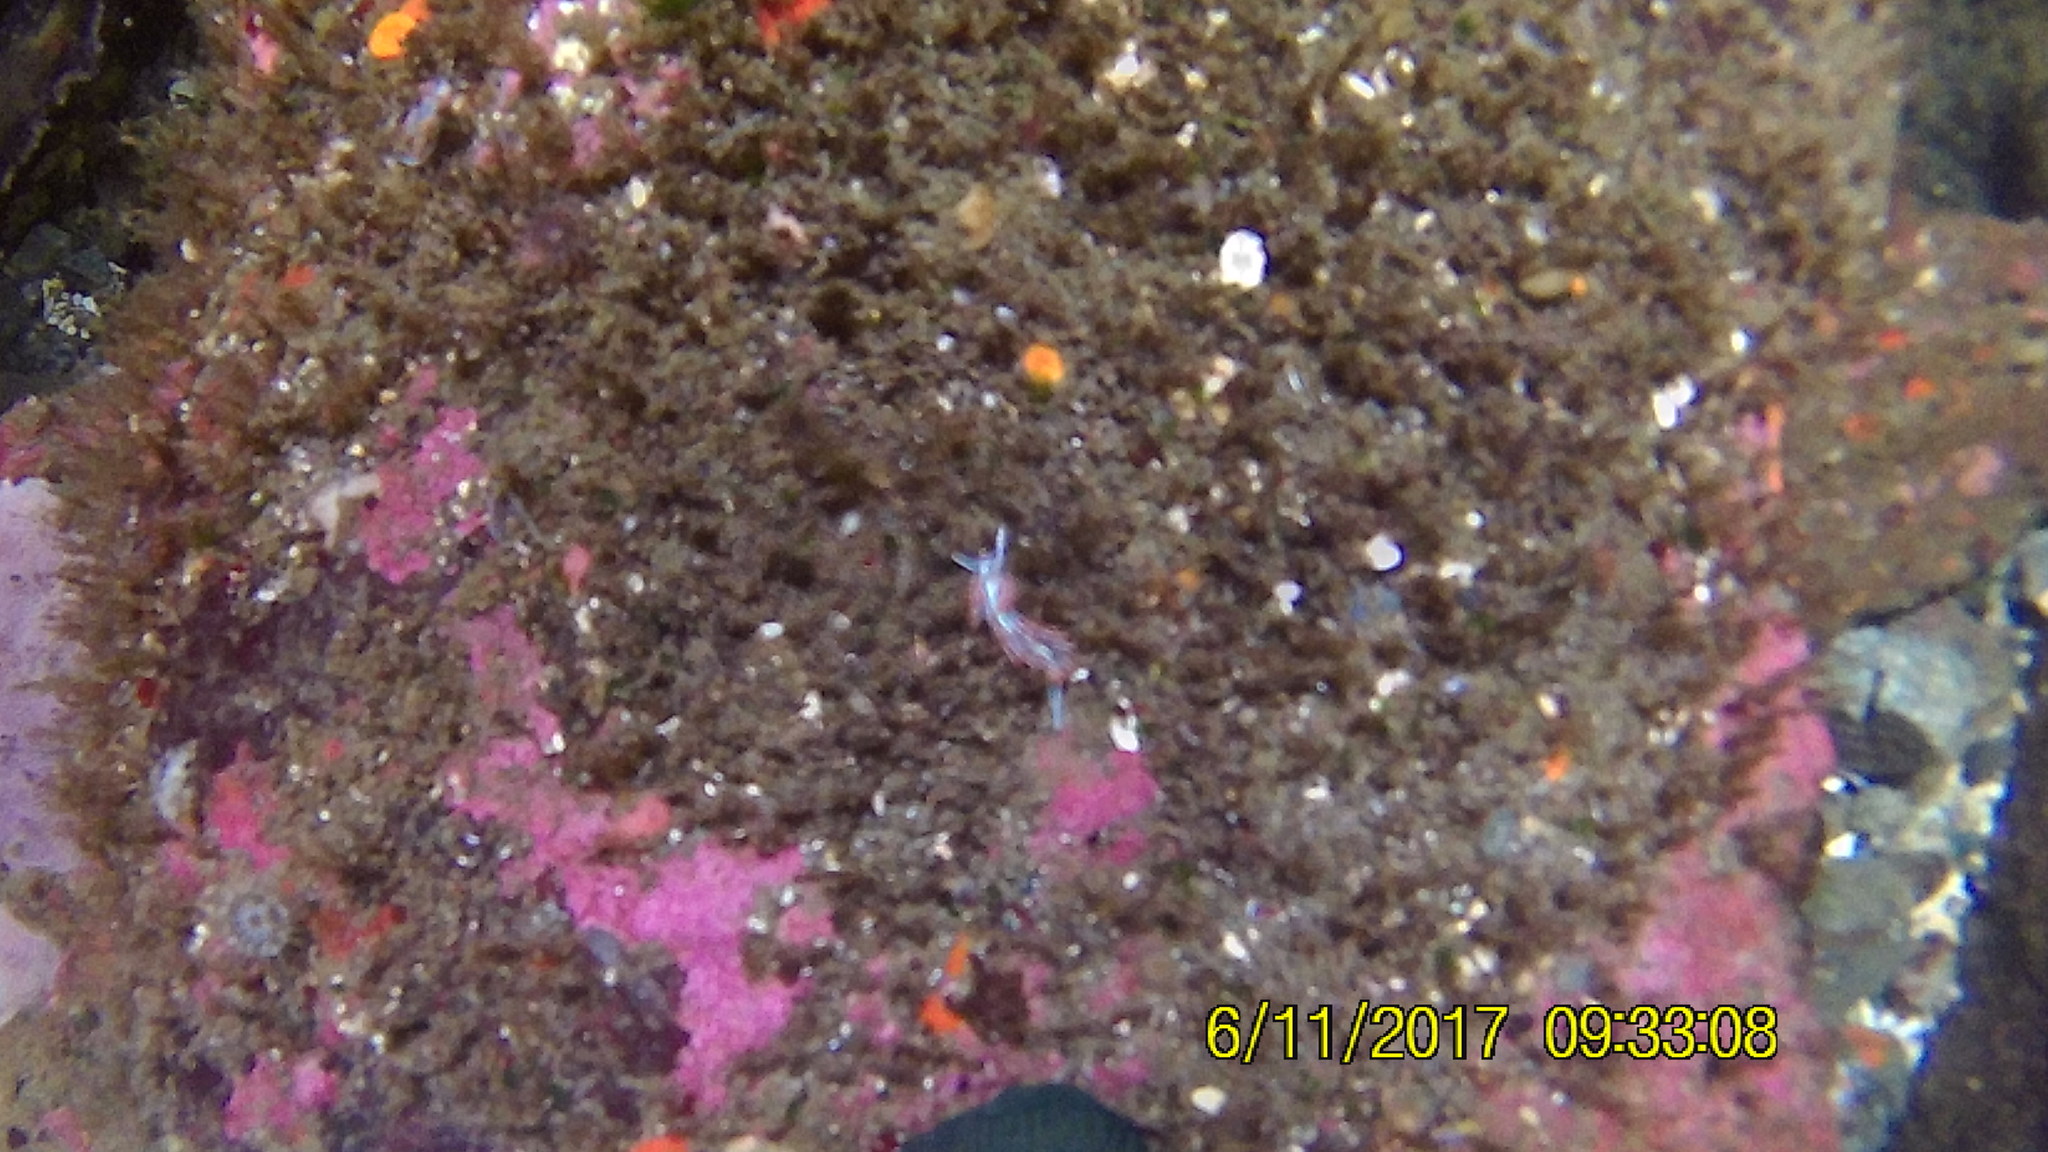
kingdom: Animalia
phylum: Mollusca
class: Gastropoda
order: Nudibranchia
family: Myrrhinidae
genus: Hermissenda
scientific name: Hermissenda crassicornis
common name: Hermissenda
